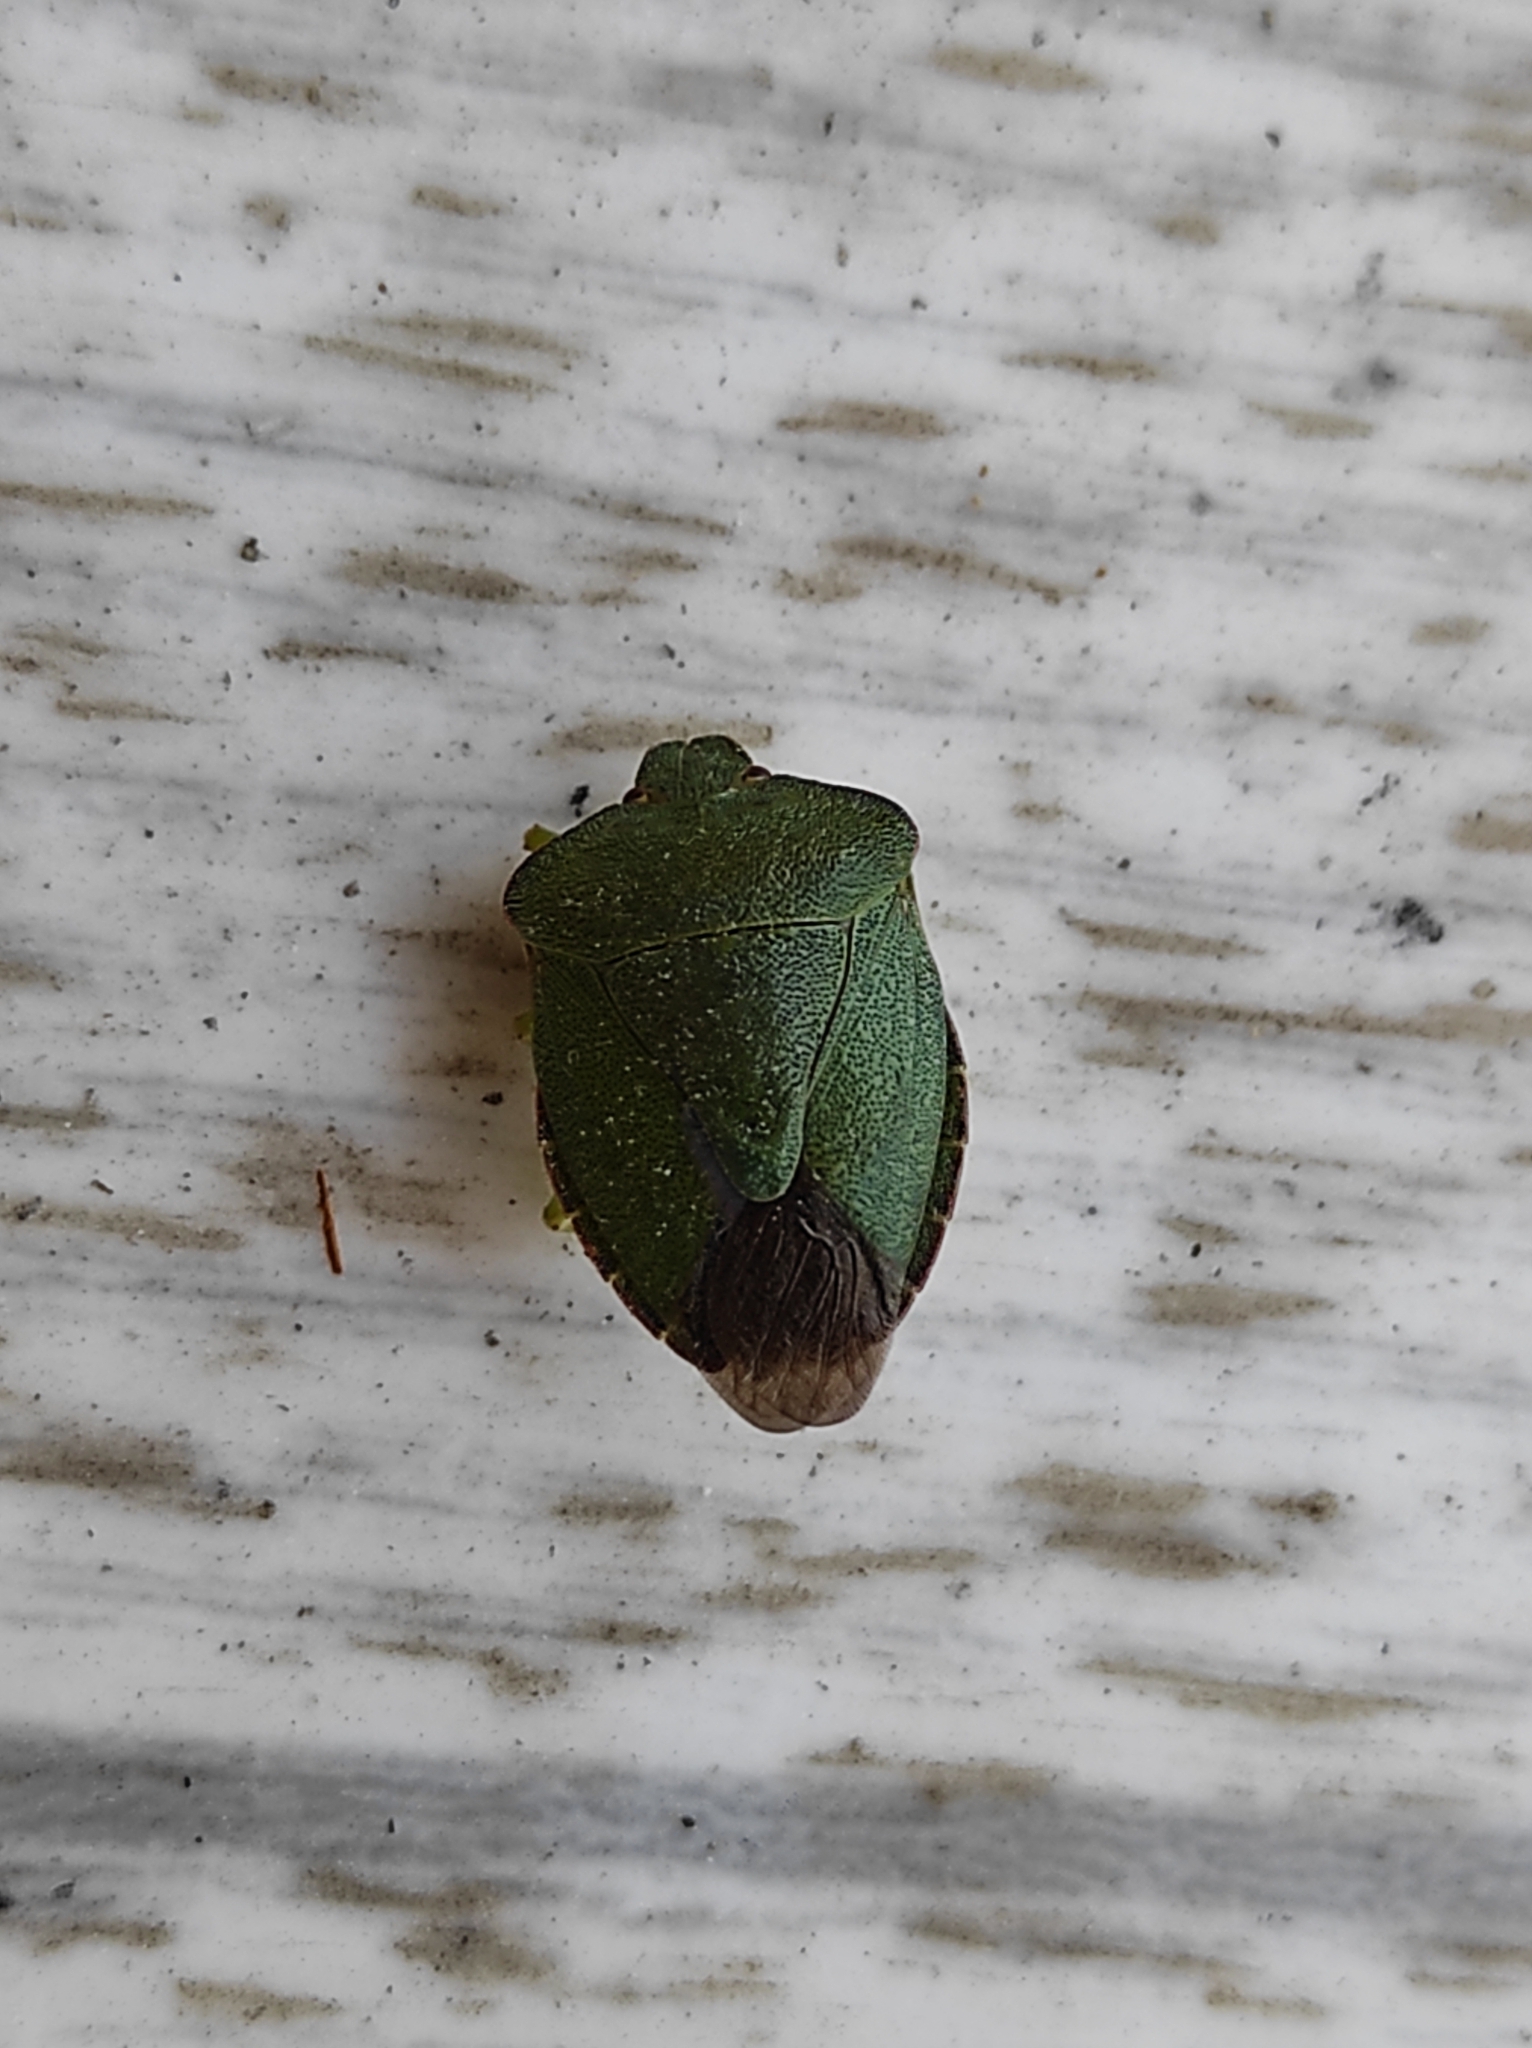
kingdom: Animalia
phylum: Arthropoda
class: Insecta
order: Hemiptera
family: Pentatomidae
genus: Palomena
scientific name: Palomena prasina
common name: Green shieldbug
